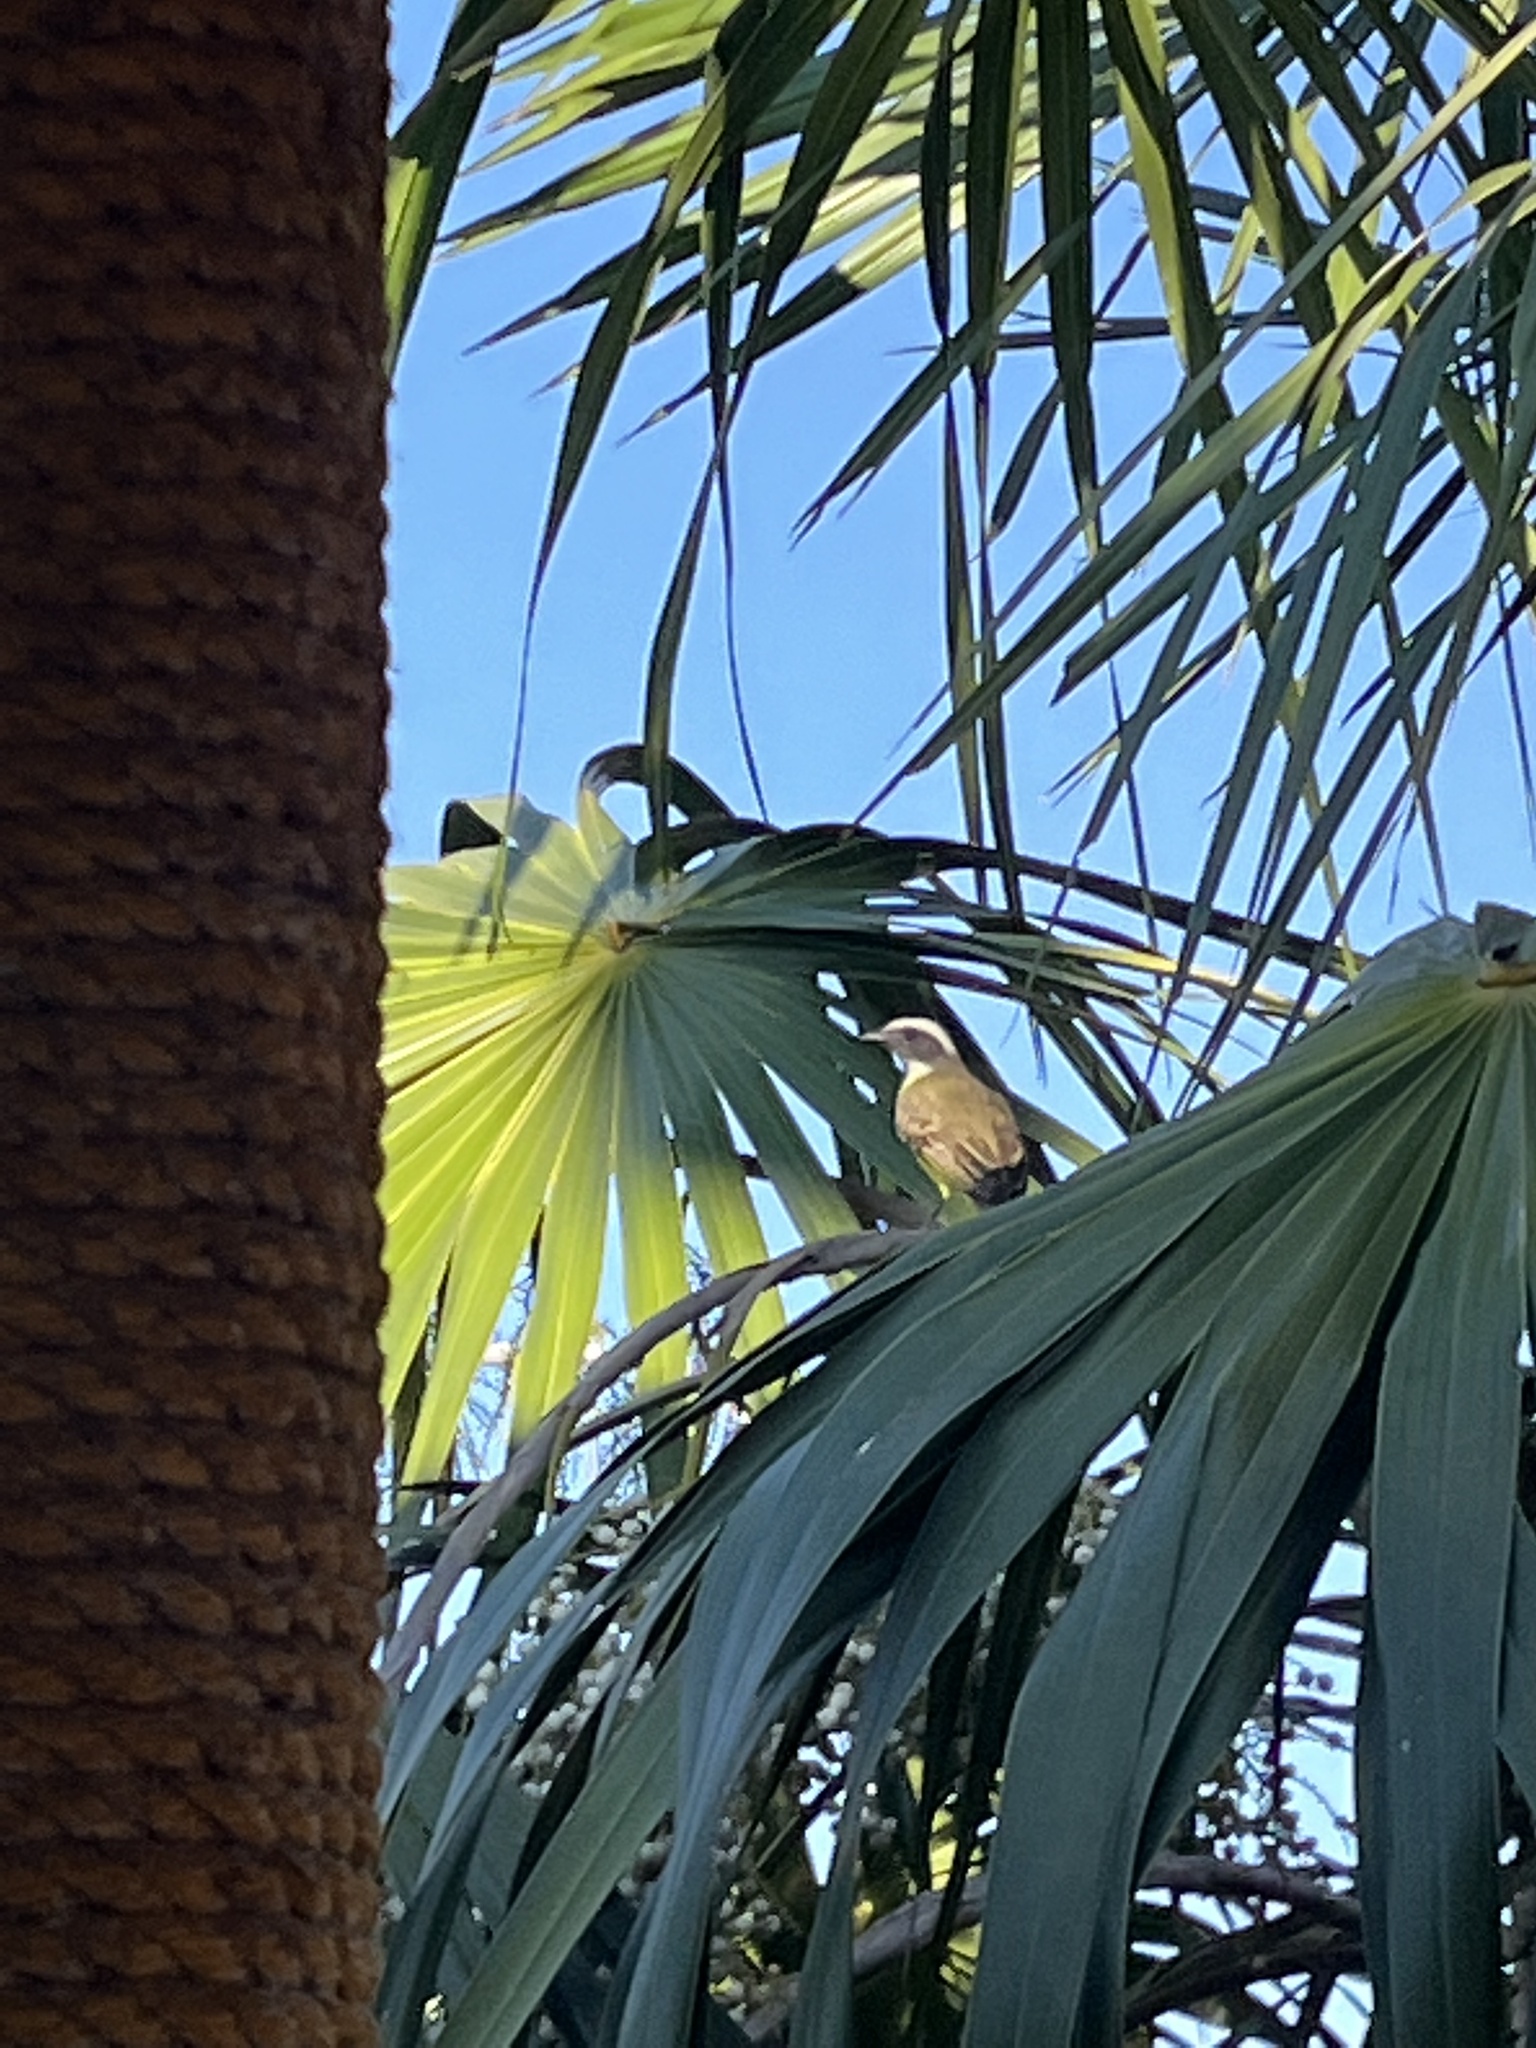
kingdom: Animalia
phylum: Chordata
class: Aves
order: Passeriformes
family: Tyrannidae
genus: Myiozetetes
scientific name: Myiozetetes similis
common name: Social flycatcher
